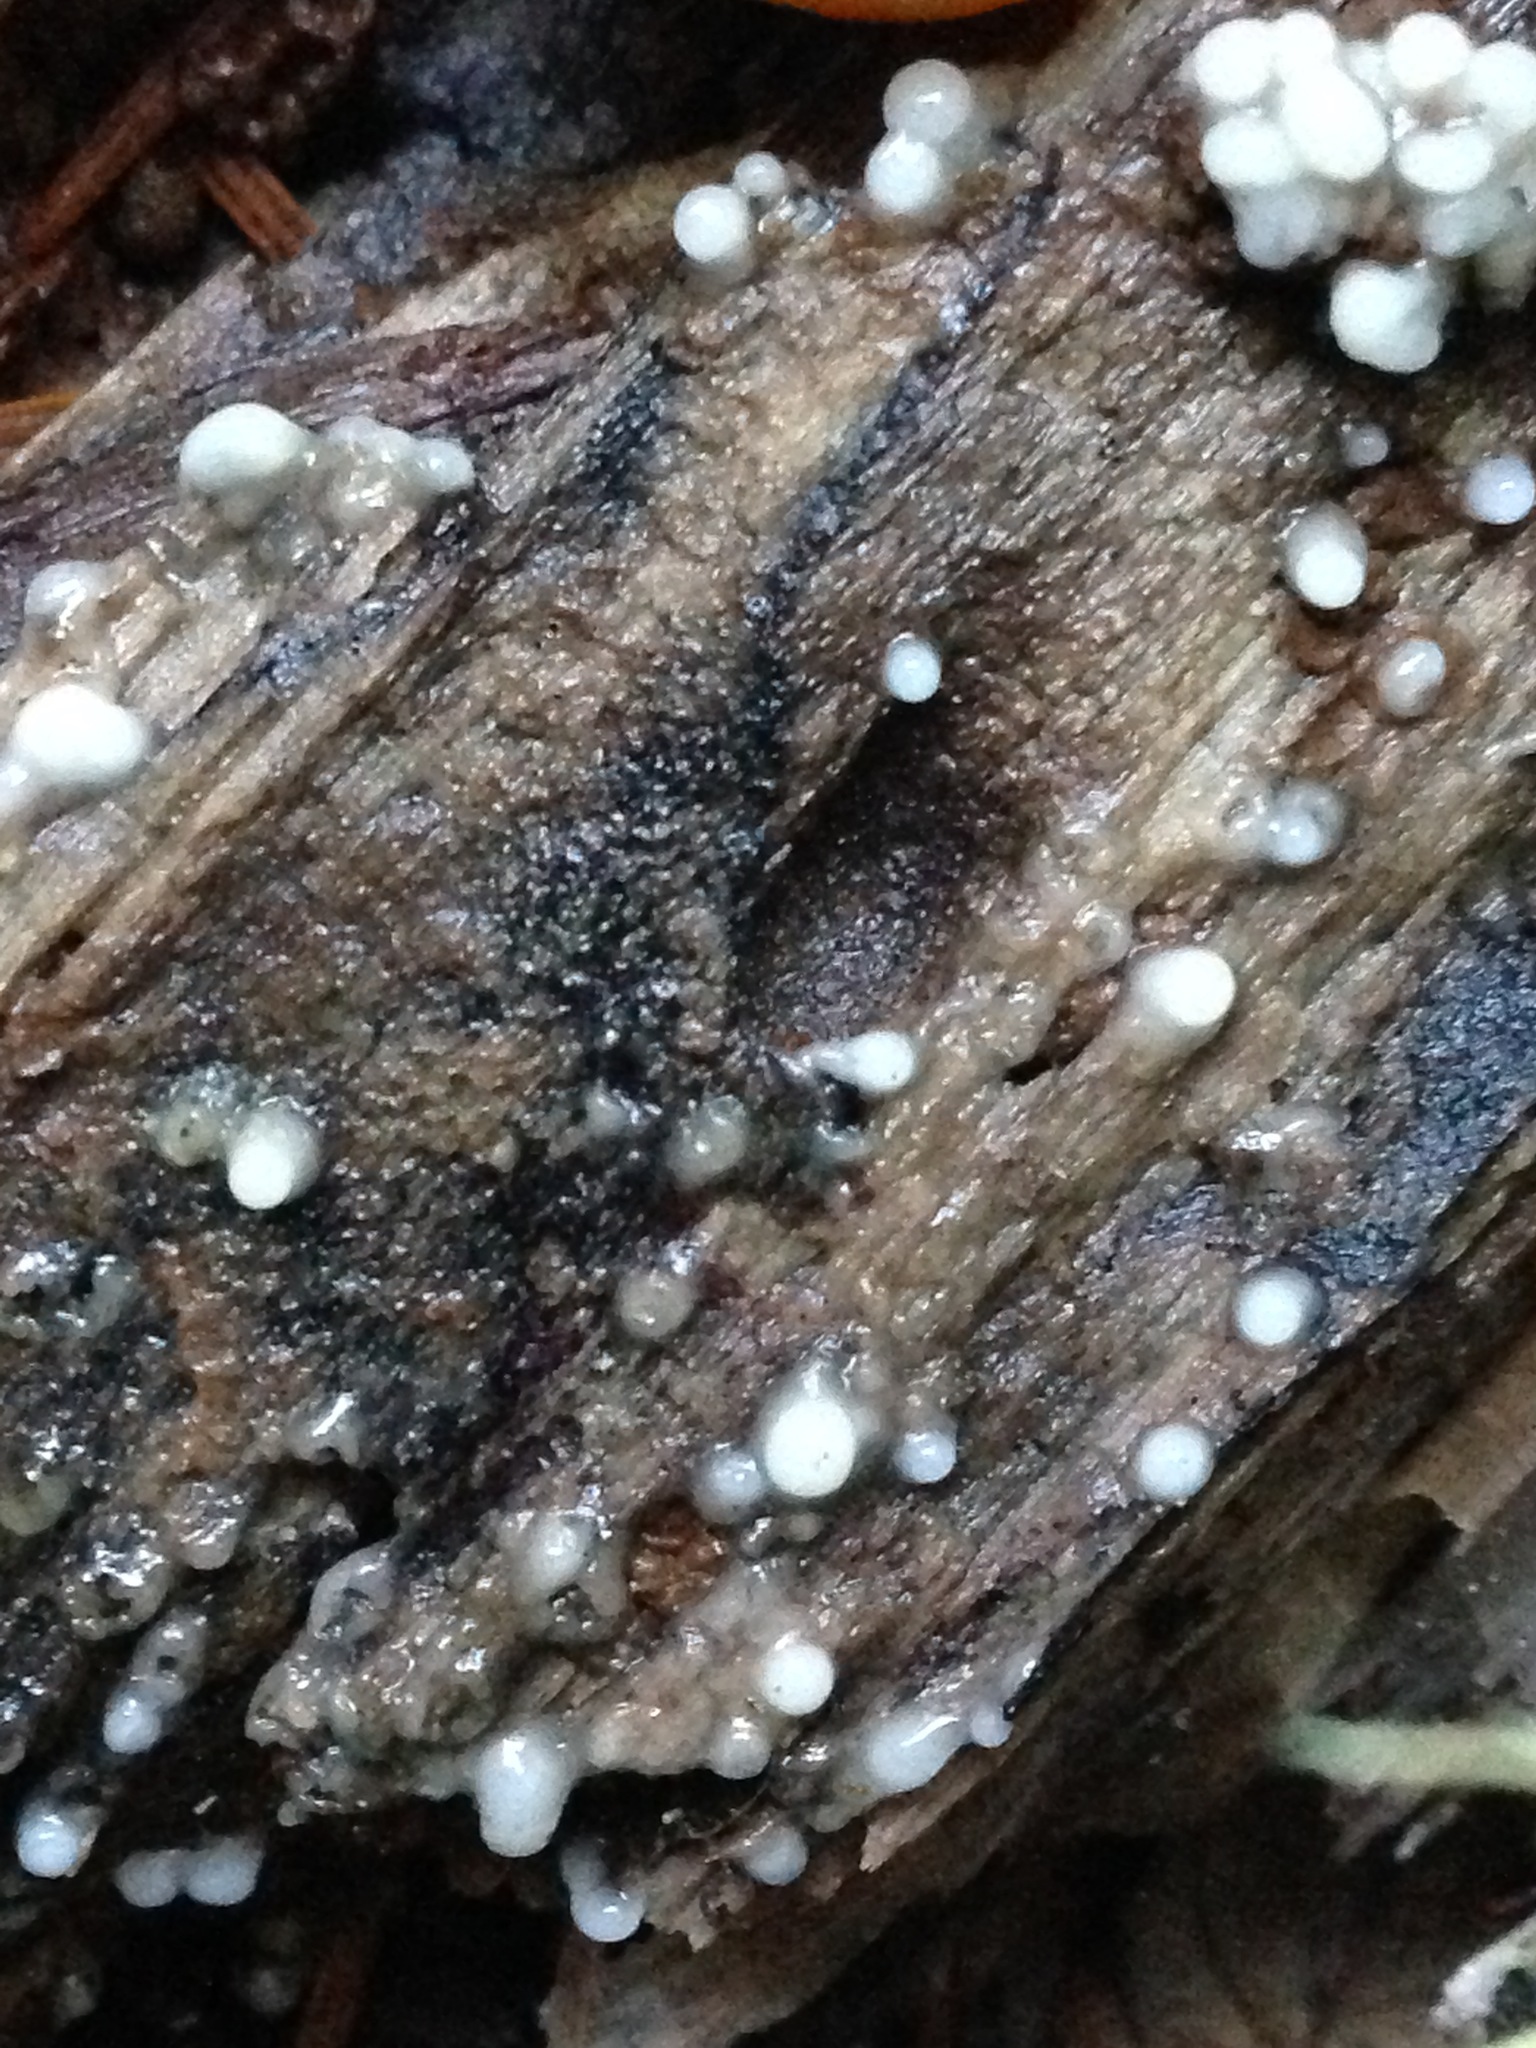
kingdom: Fungi
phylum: Basidiomycota
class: Atractiellomycetes
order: Atractiellales
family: Phleogenaceae
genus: Helicogloea
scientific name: Helicogloea compressa
